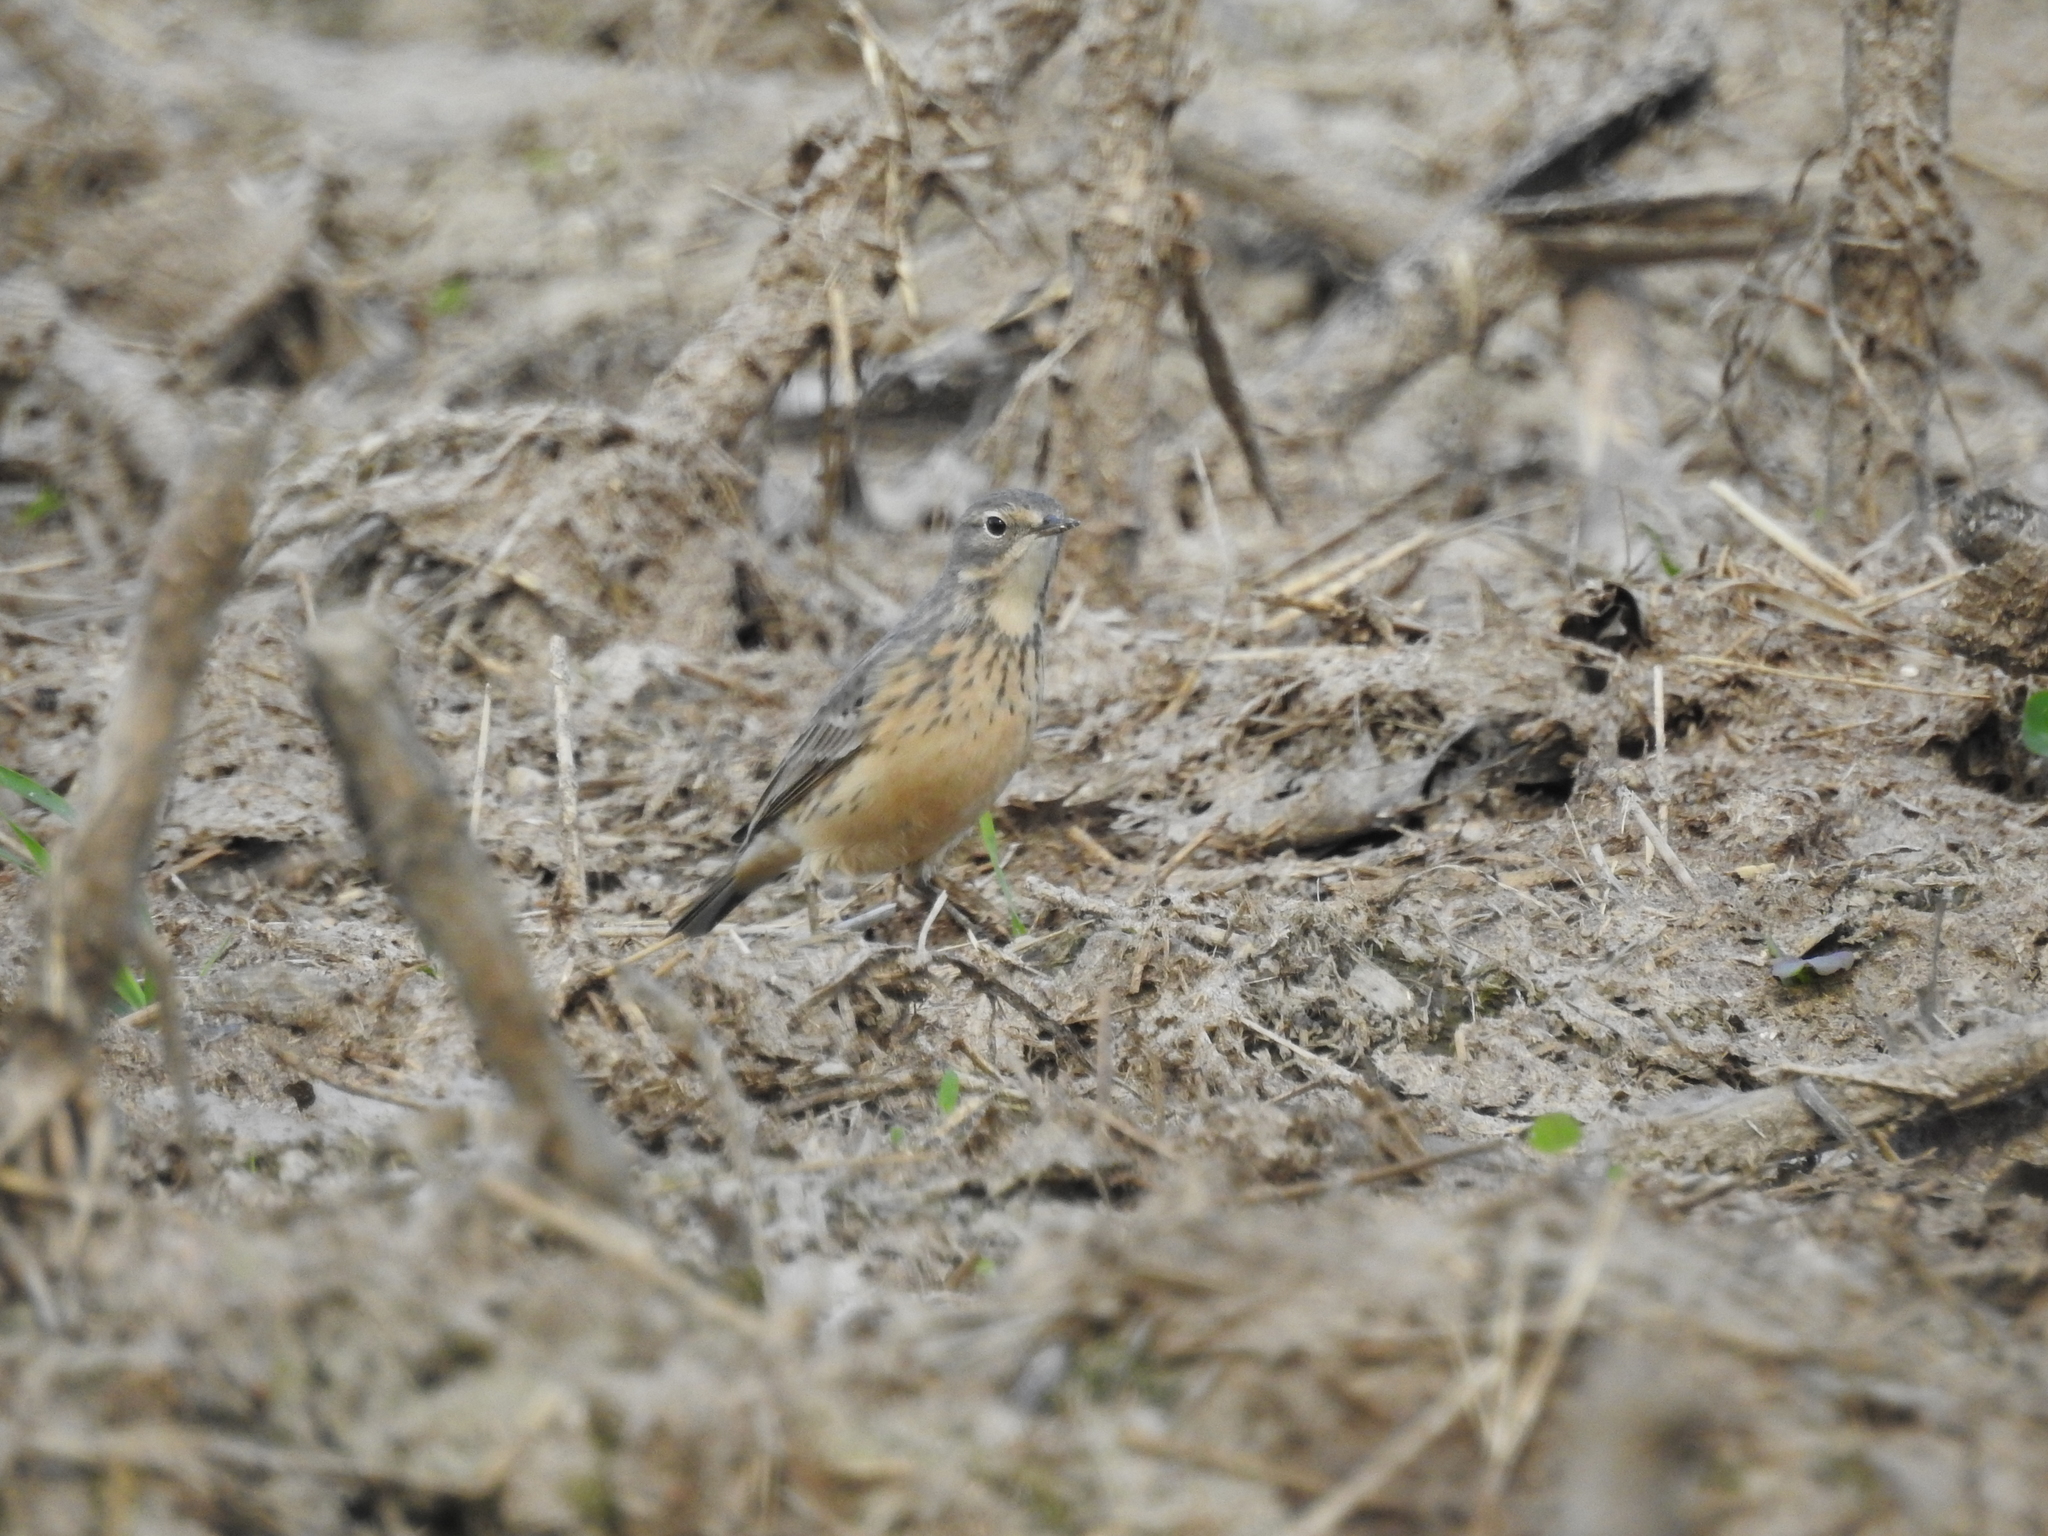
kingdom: Animalia
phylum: Chordata
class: Aves
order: Passeriformes
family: Motacillidae
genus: Anthus
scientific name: Anthus rubescens
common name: Buff-bellied pipit
